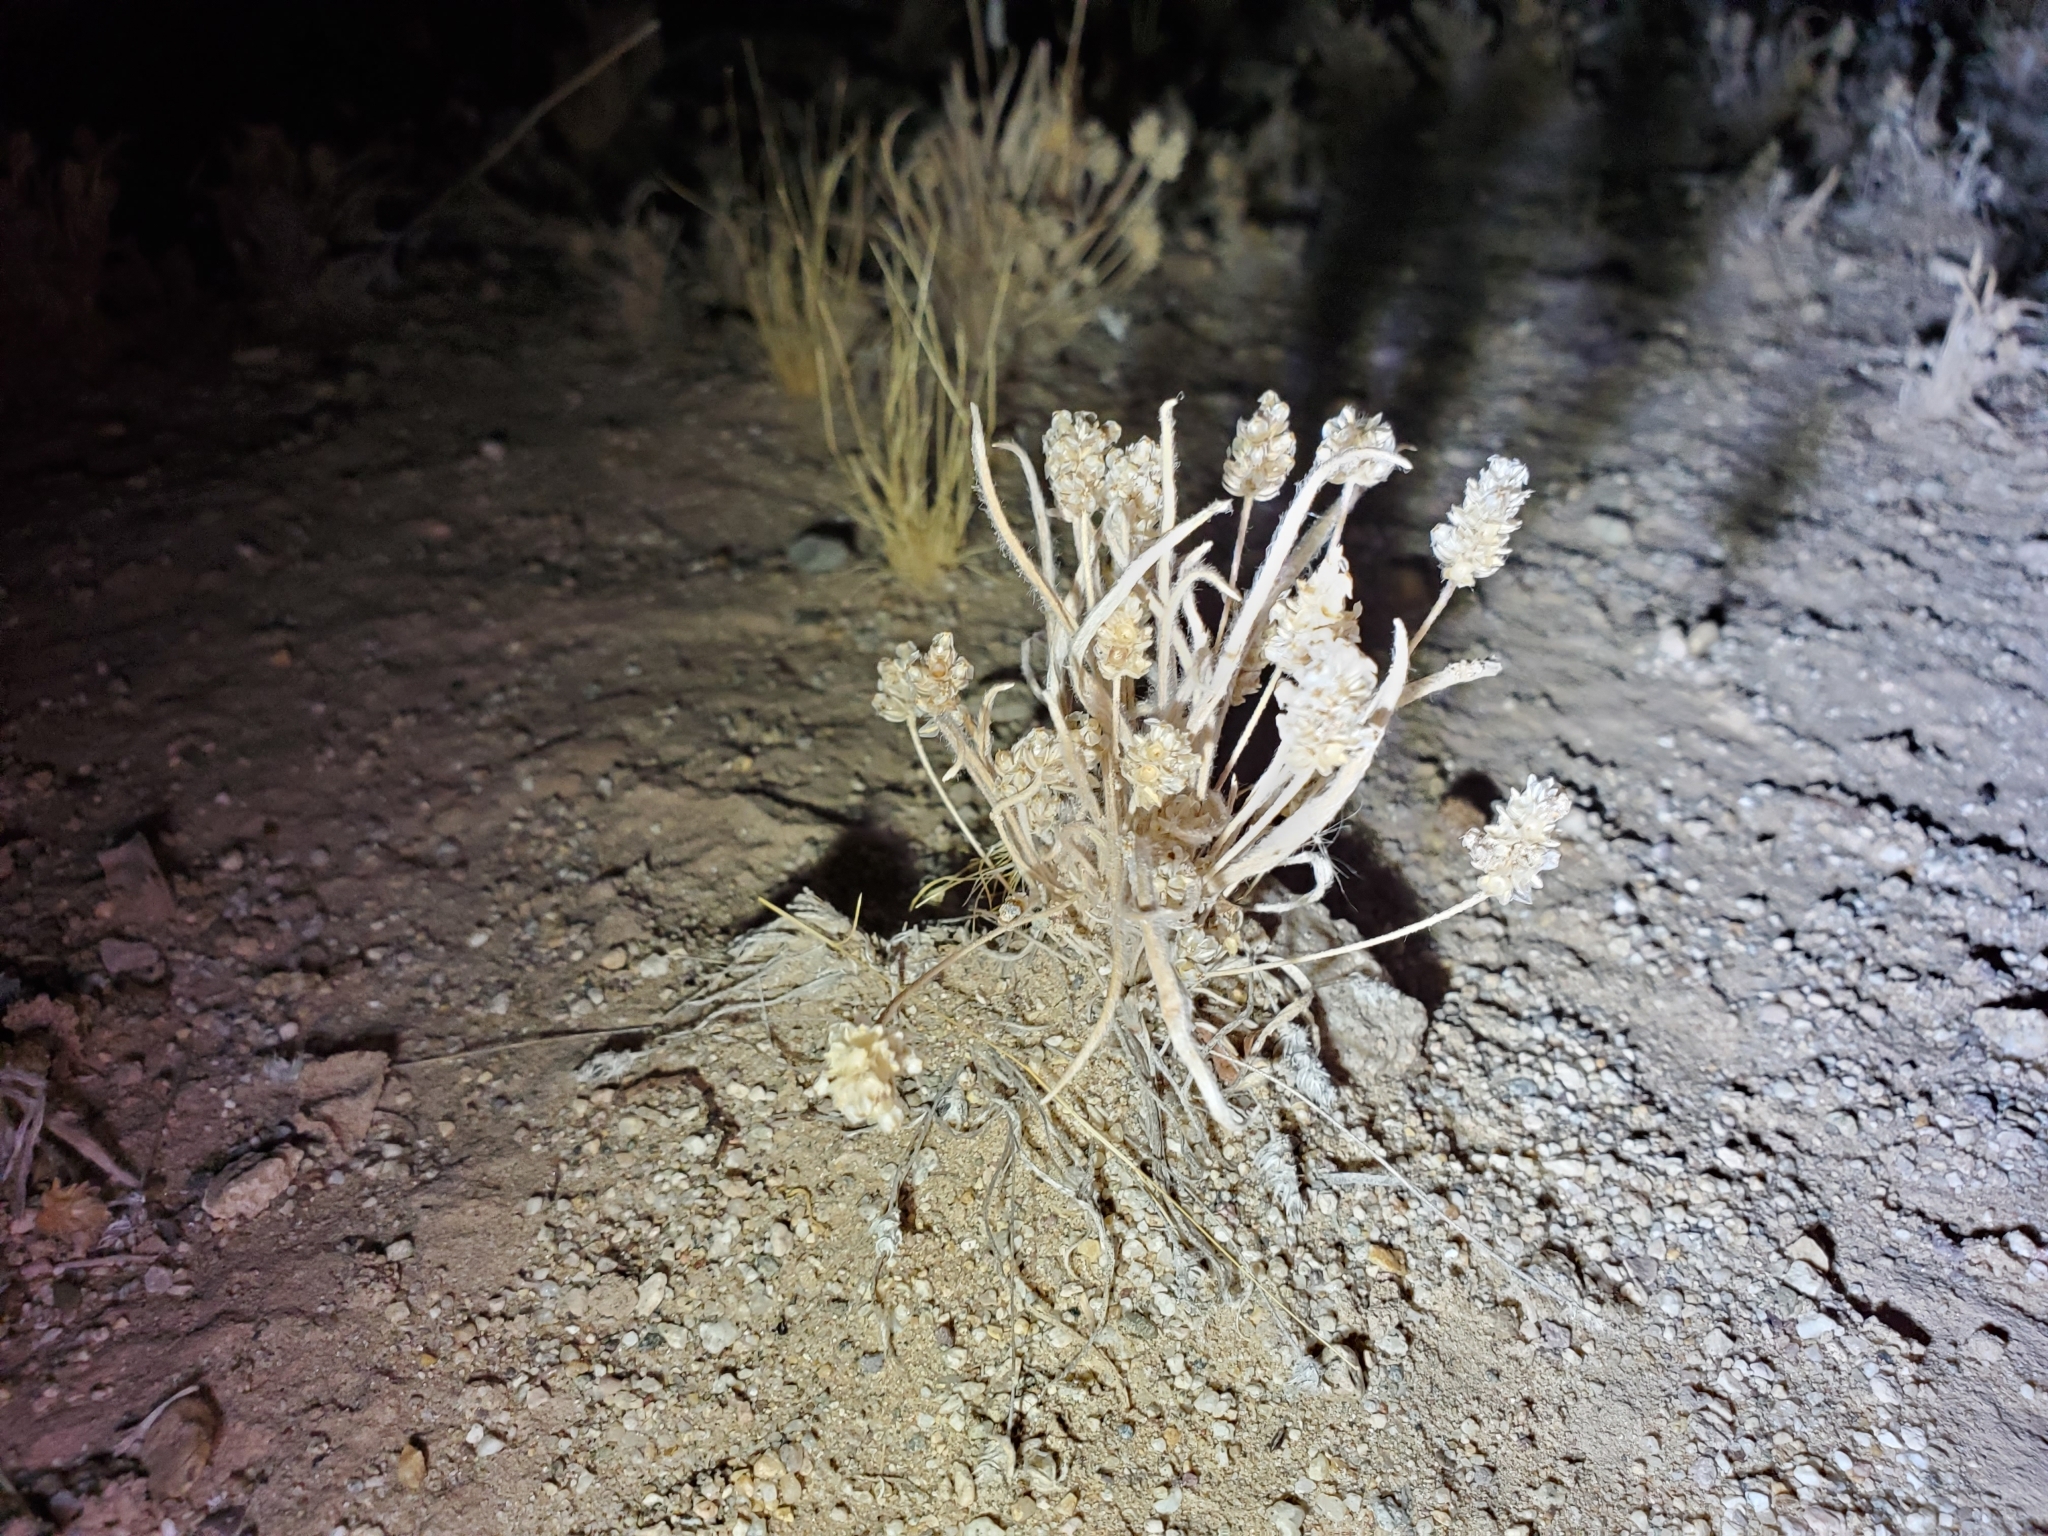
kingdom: Plantae
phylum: Tracheophyta
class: Magnoliopsida
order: Lamiales
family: Plantaginaceae
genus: Plantago
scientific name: Plantago ovata
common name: Blond plantain
